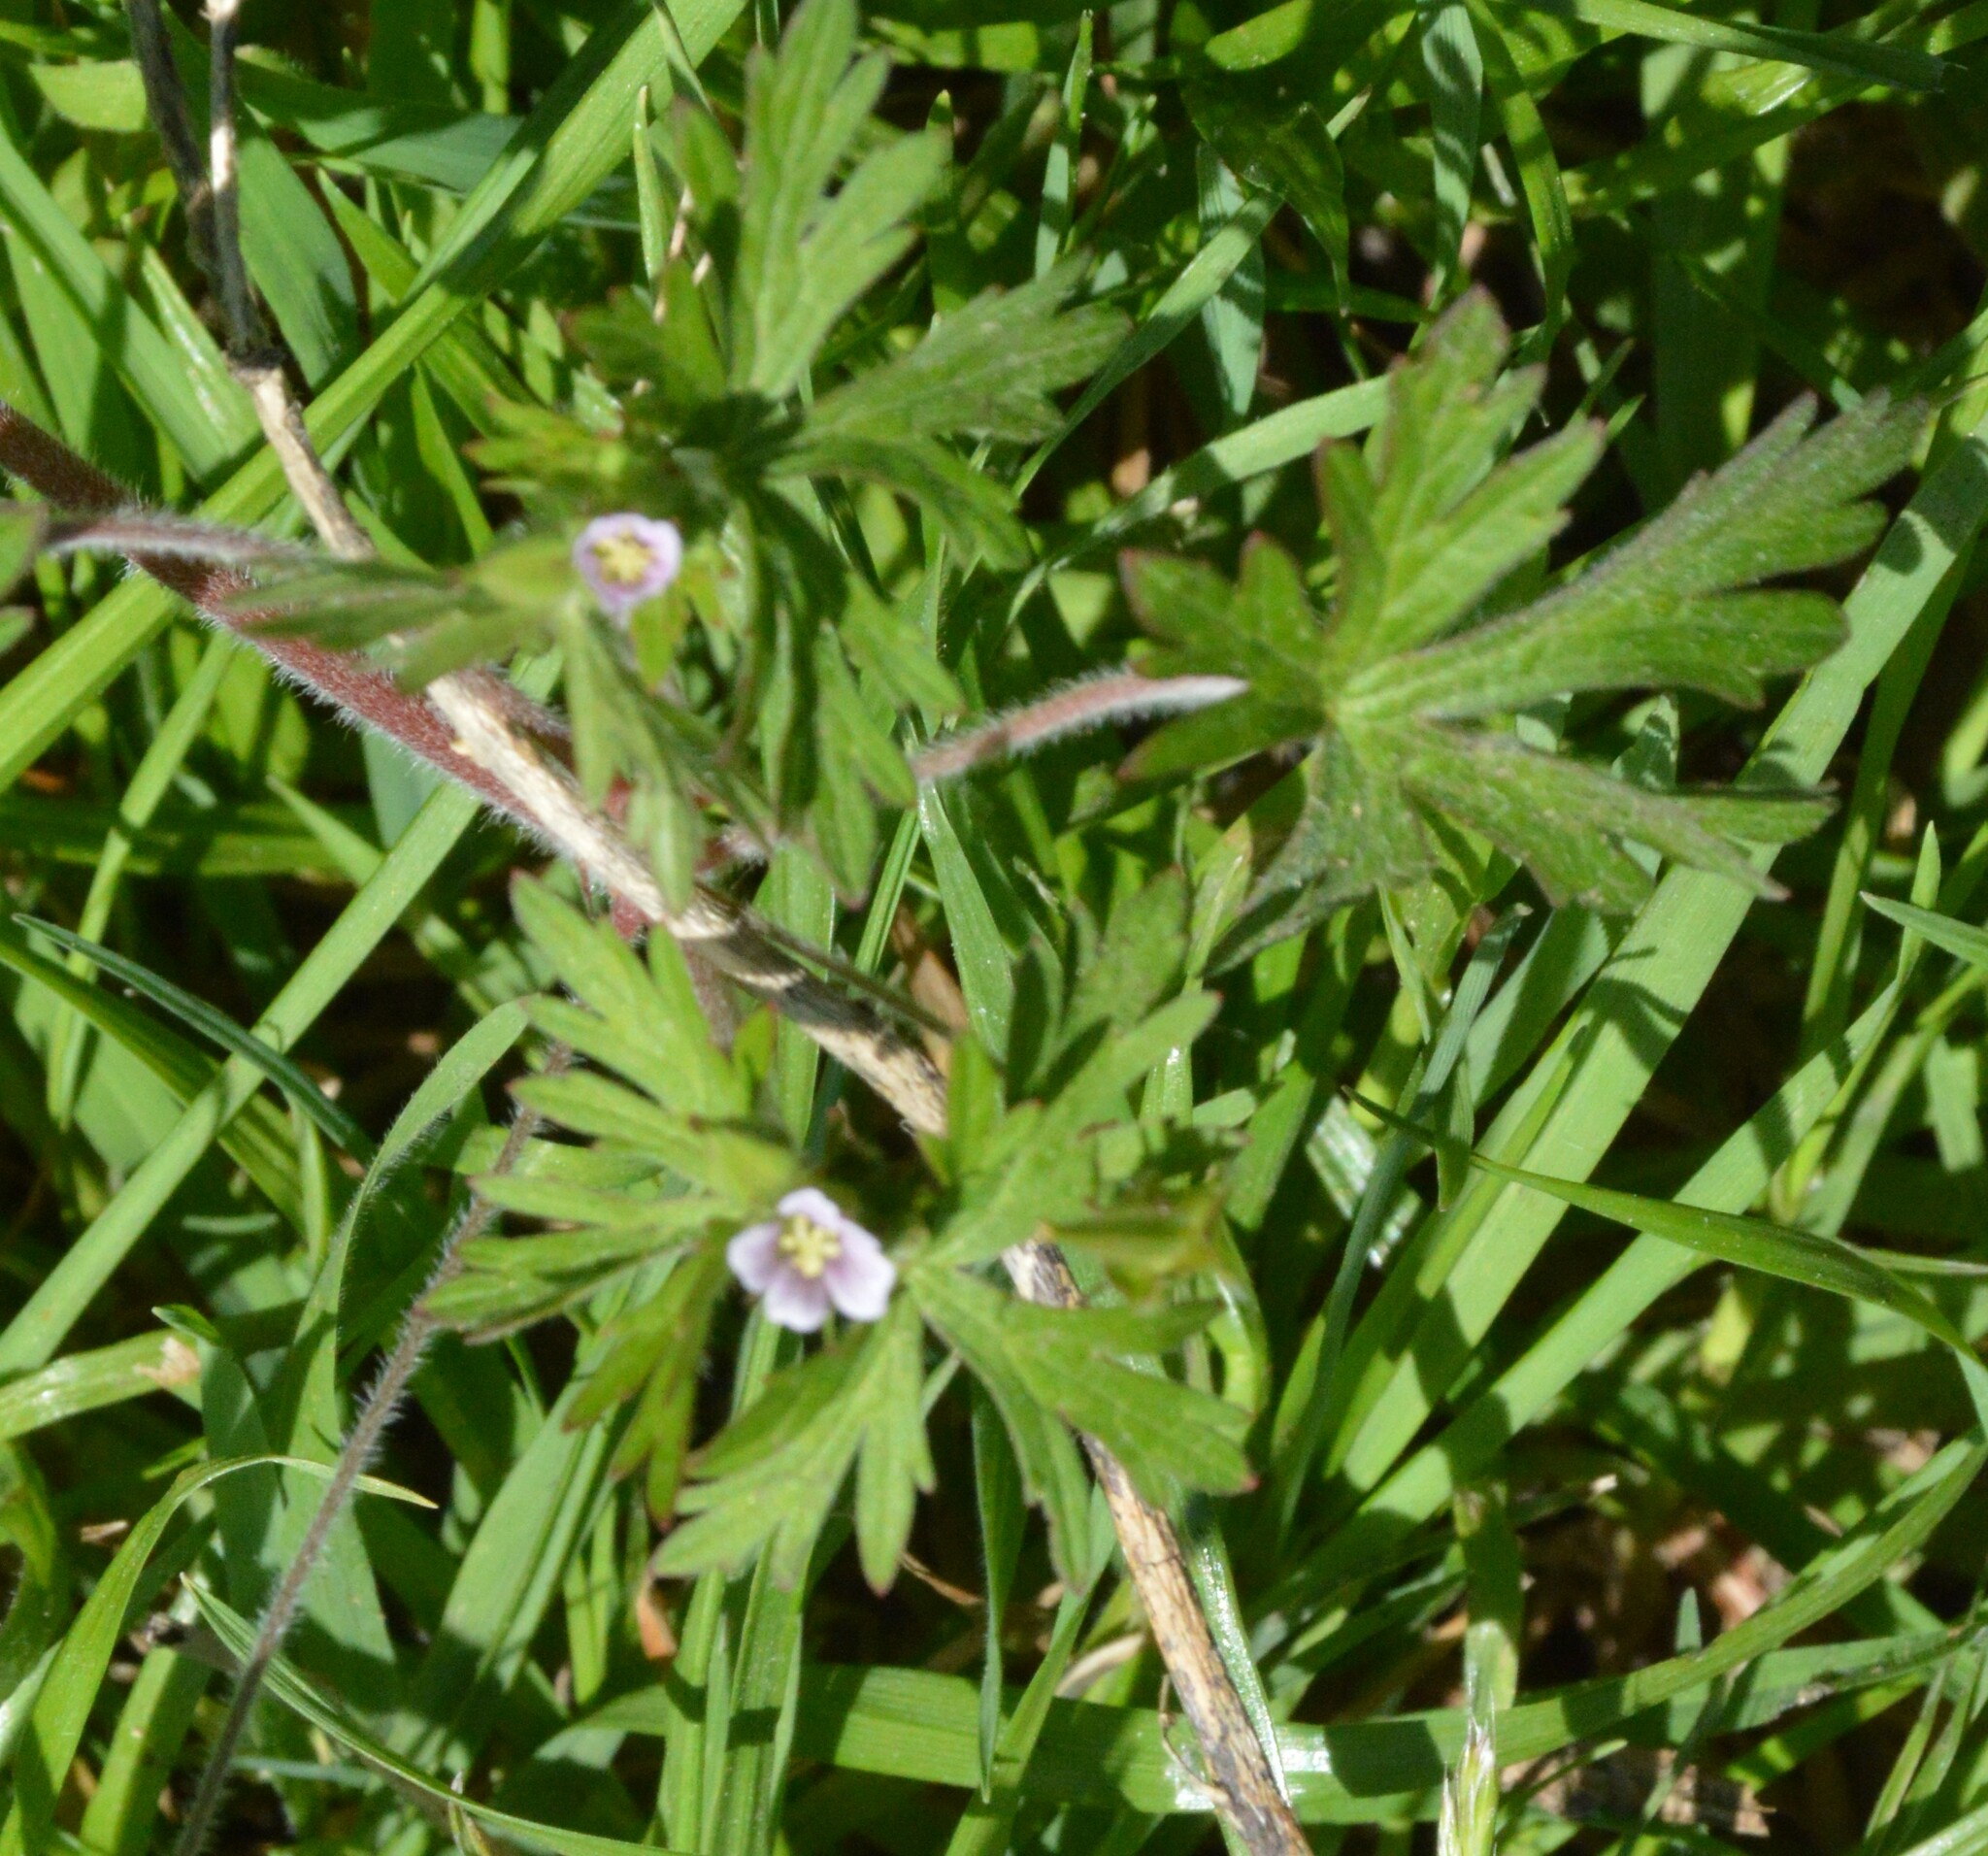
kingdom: Plantae
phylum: Tracheophyta
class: Magnoliopsida
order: Geraniales
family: Geraniaceae
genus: Geranium
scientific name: Geranium carolinianum
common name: Carolina crane's-bill
